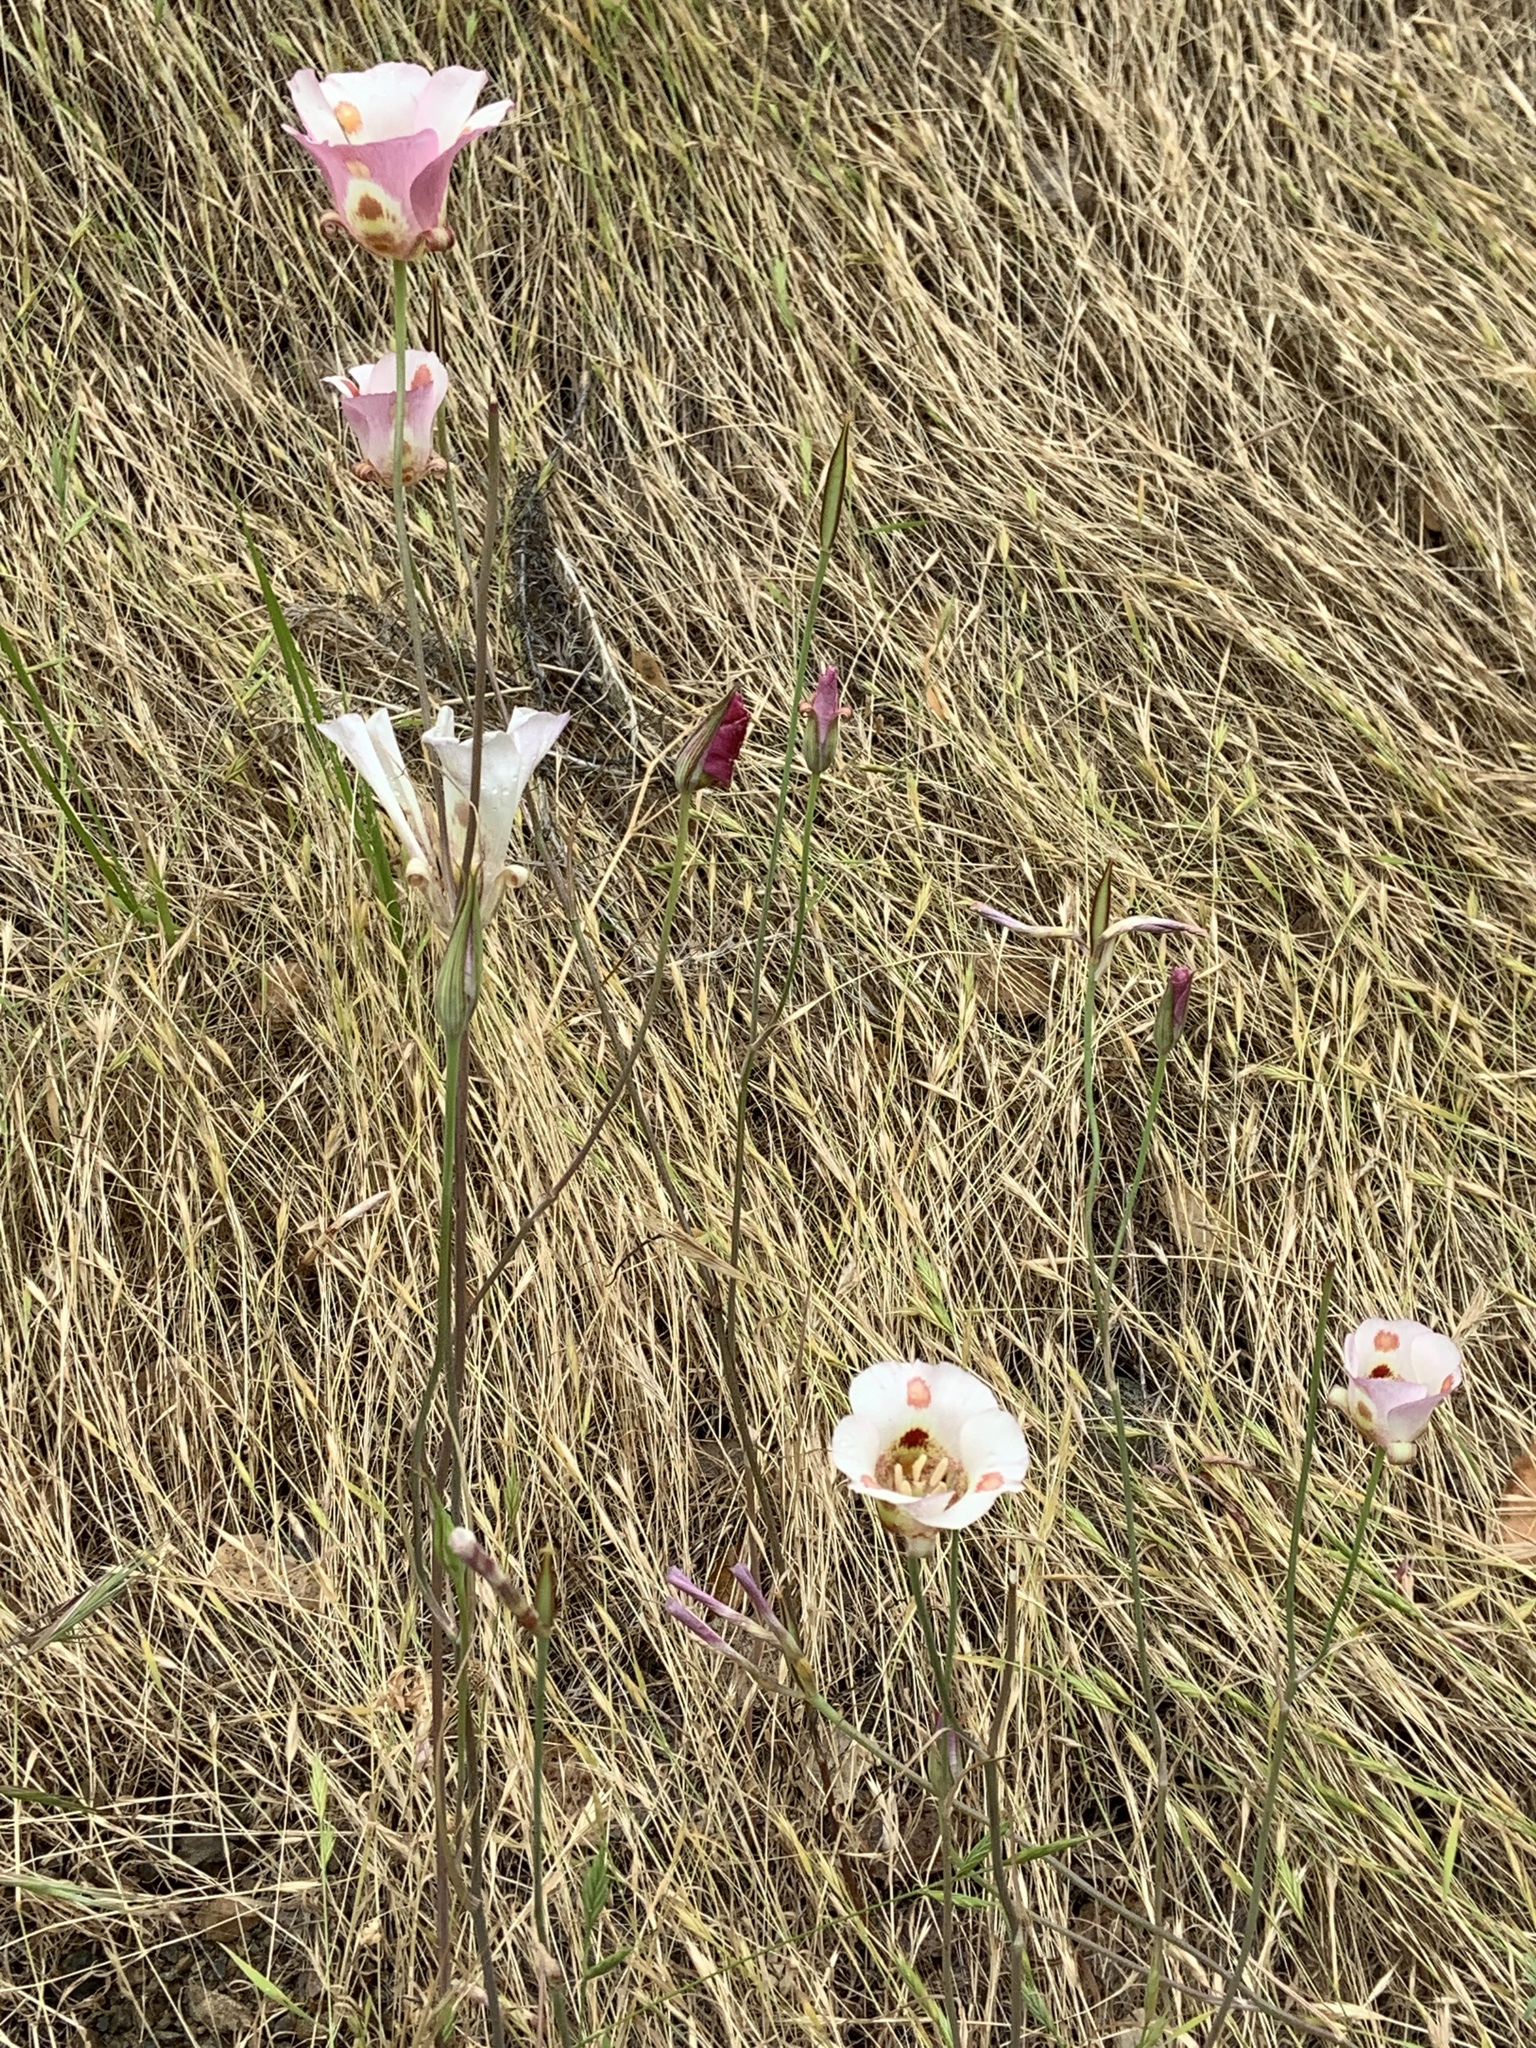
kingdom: Plantae
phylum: Tracheophyta
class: Liliopsida
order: Liliales
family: Liliaceae
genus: Calochortus
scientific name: Calochortus venustus
